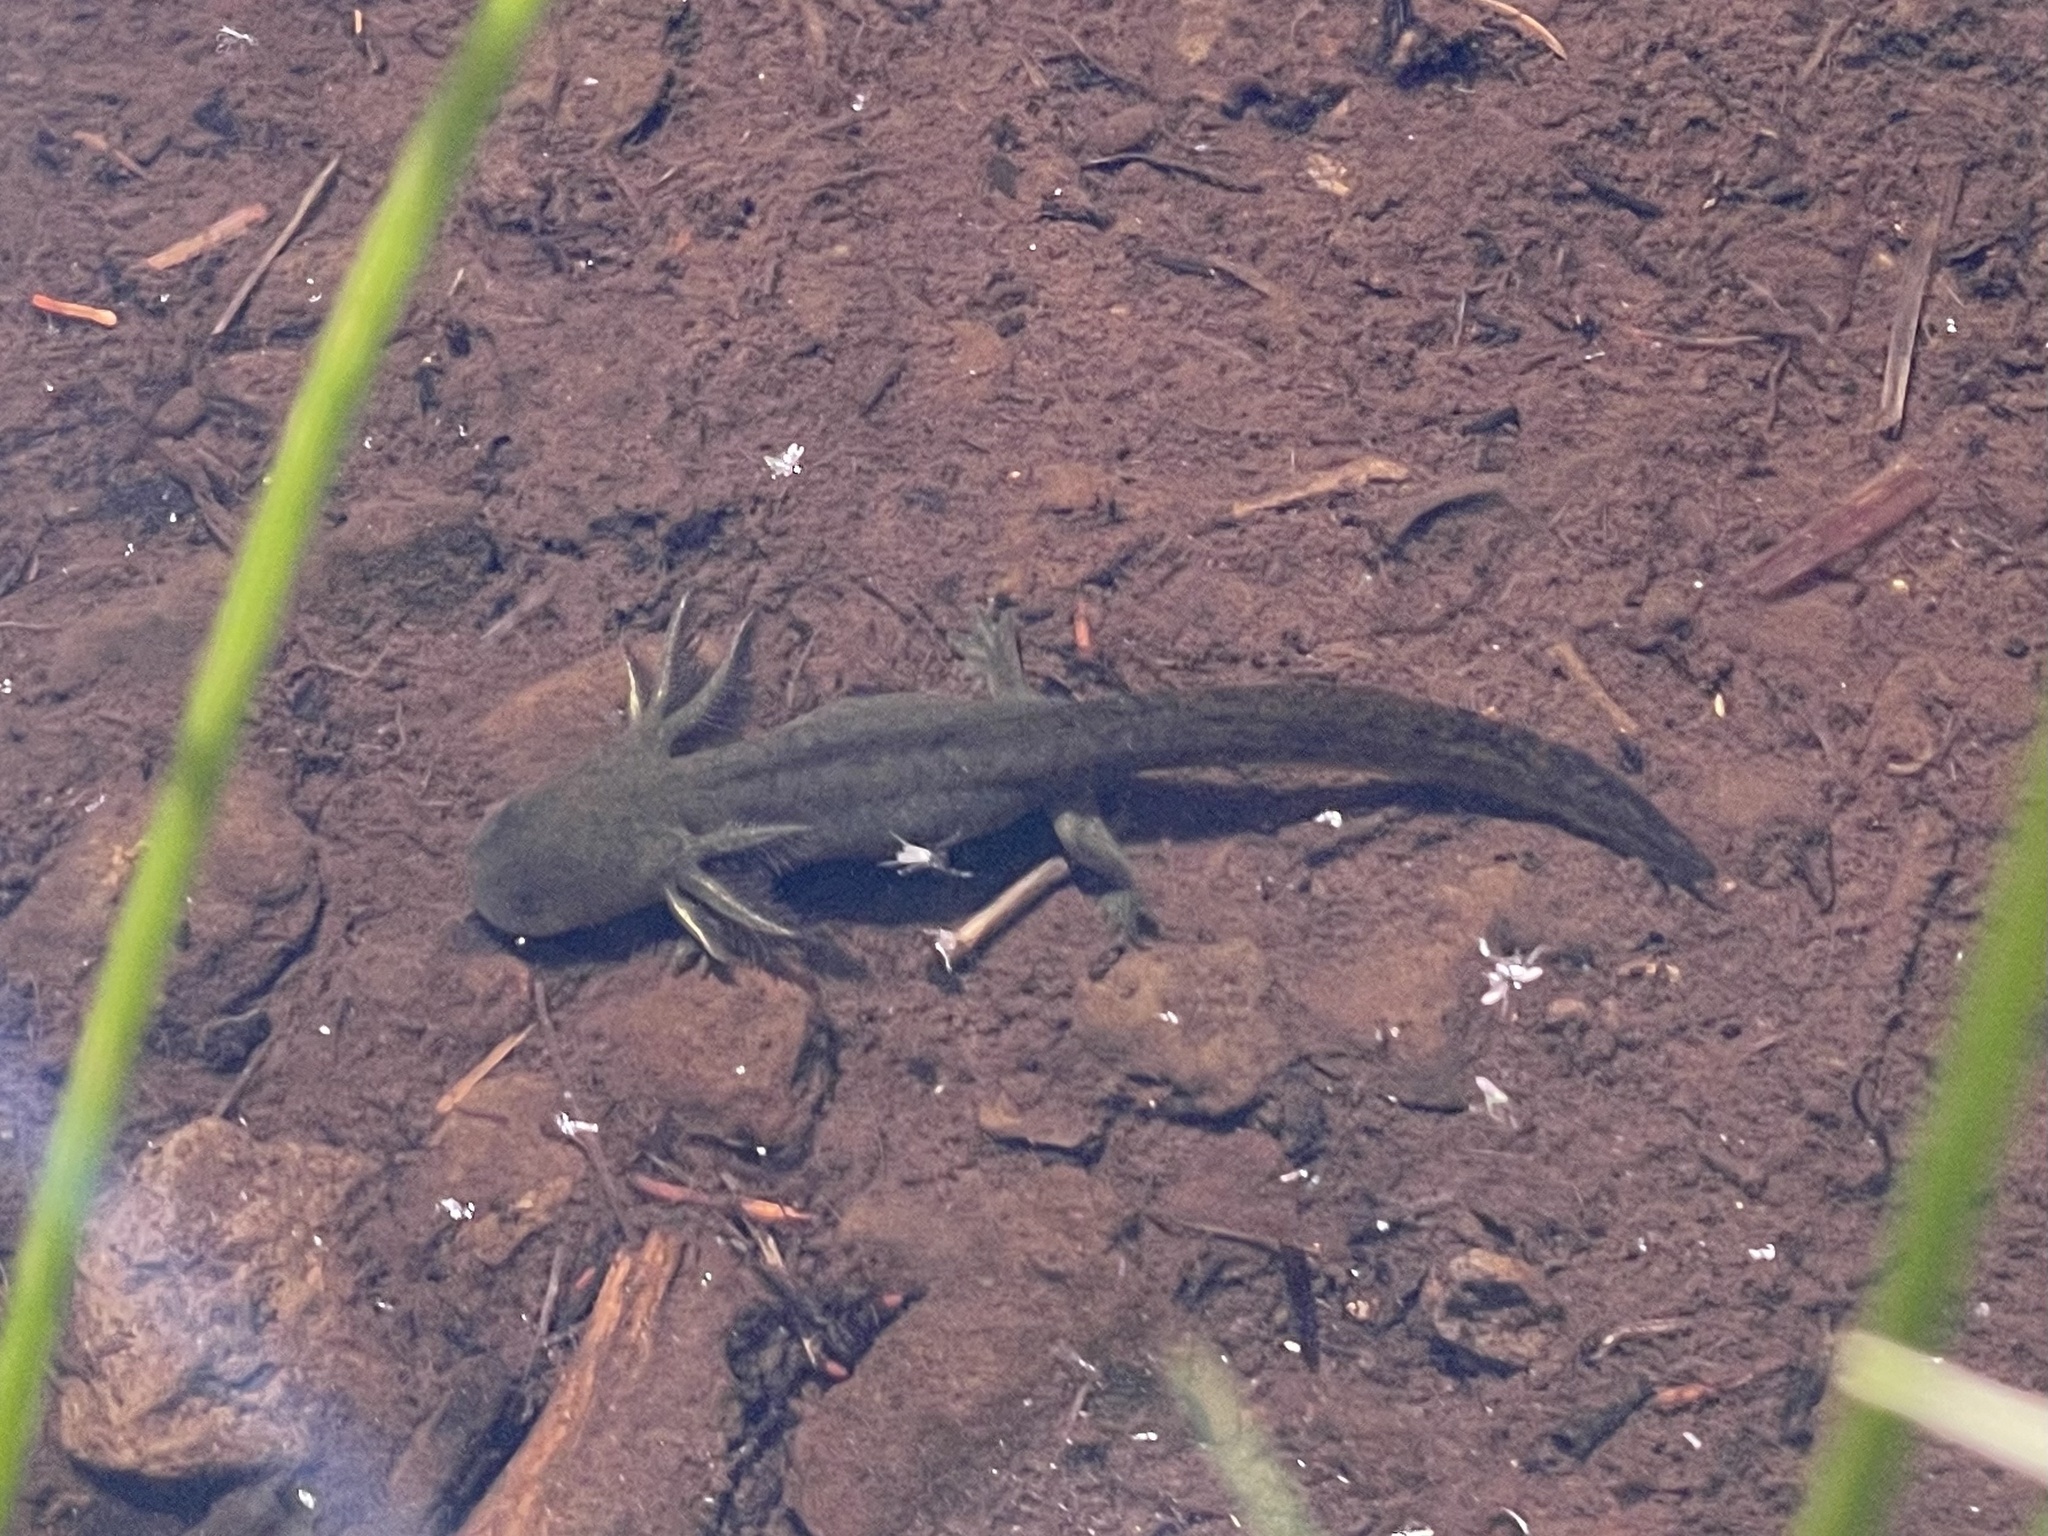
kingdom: Animalia
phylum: Chordata
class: Amphibia
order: Caudata
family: Ambystomatidae
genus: Ambystoma
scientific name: Ambystoma mavortium
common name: Western tiger salamander
